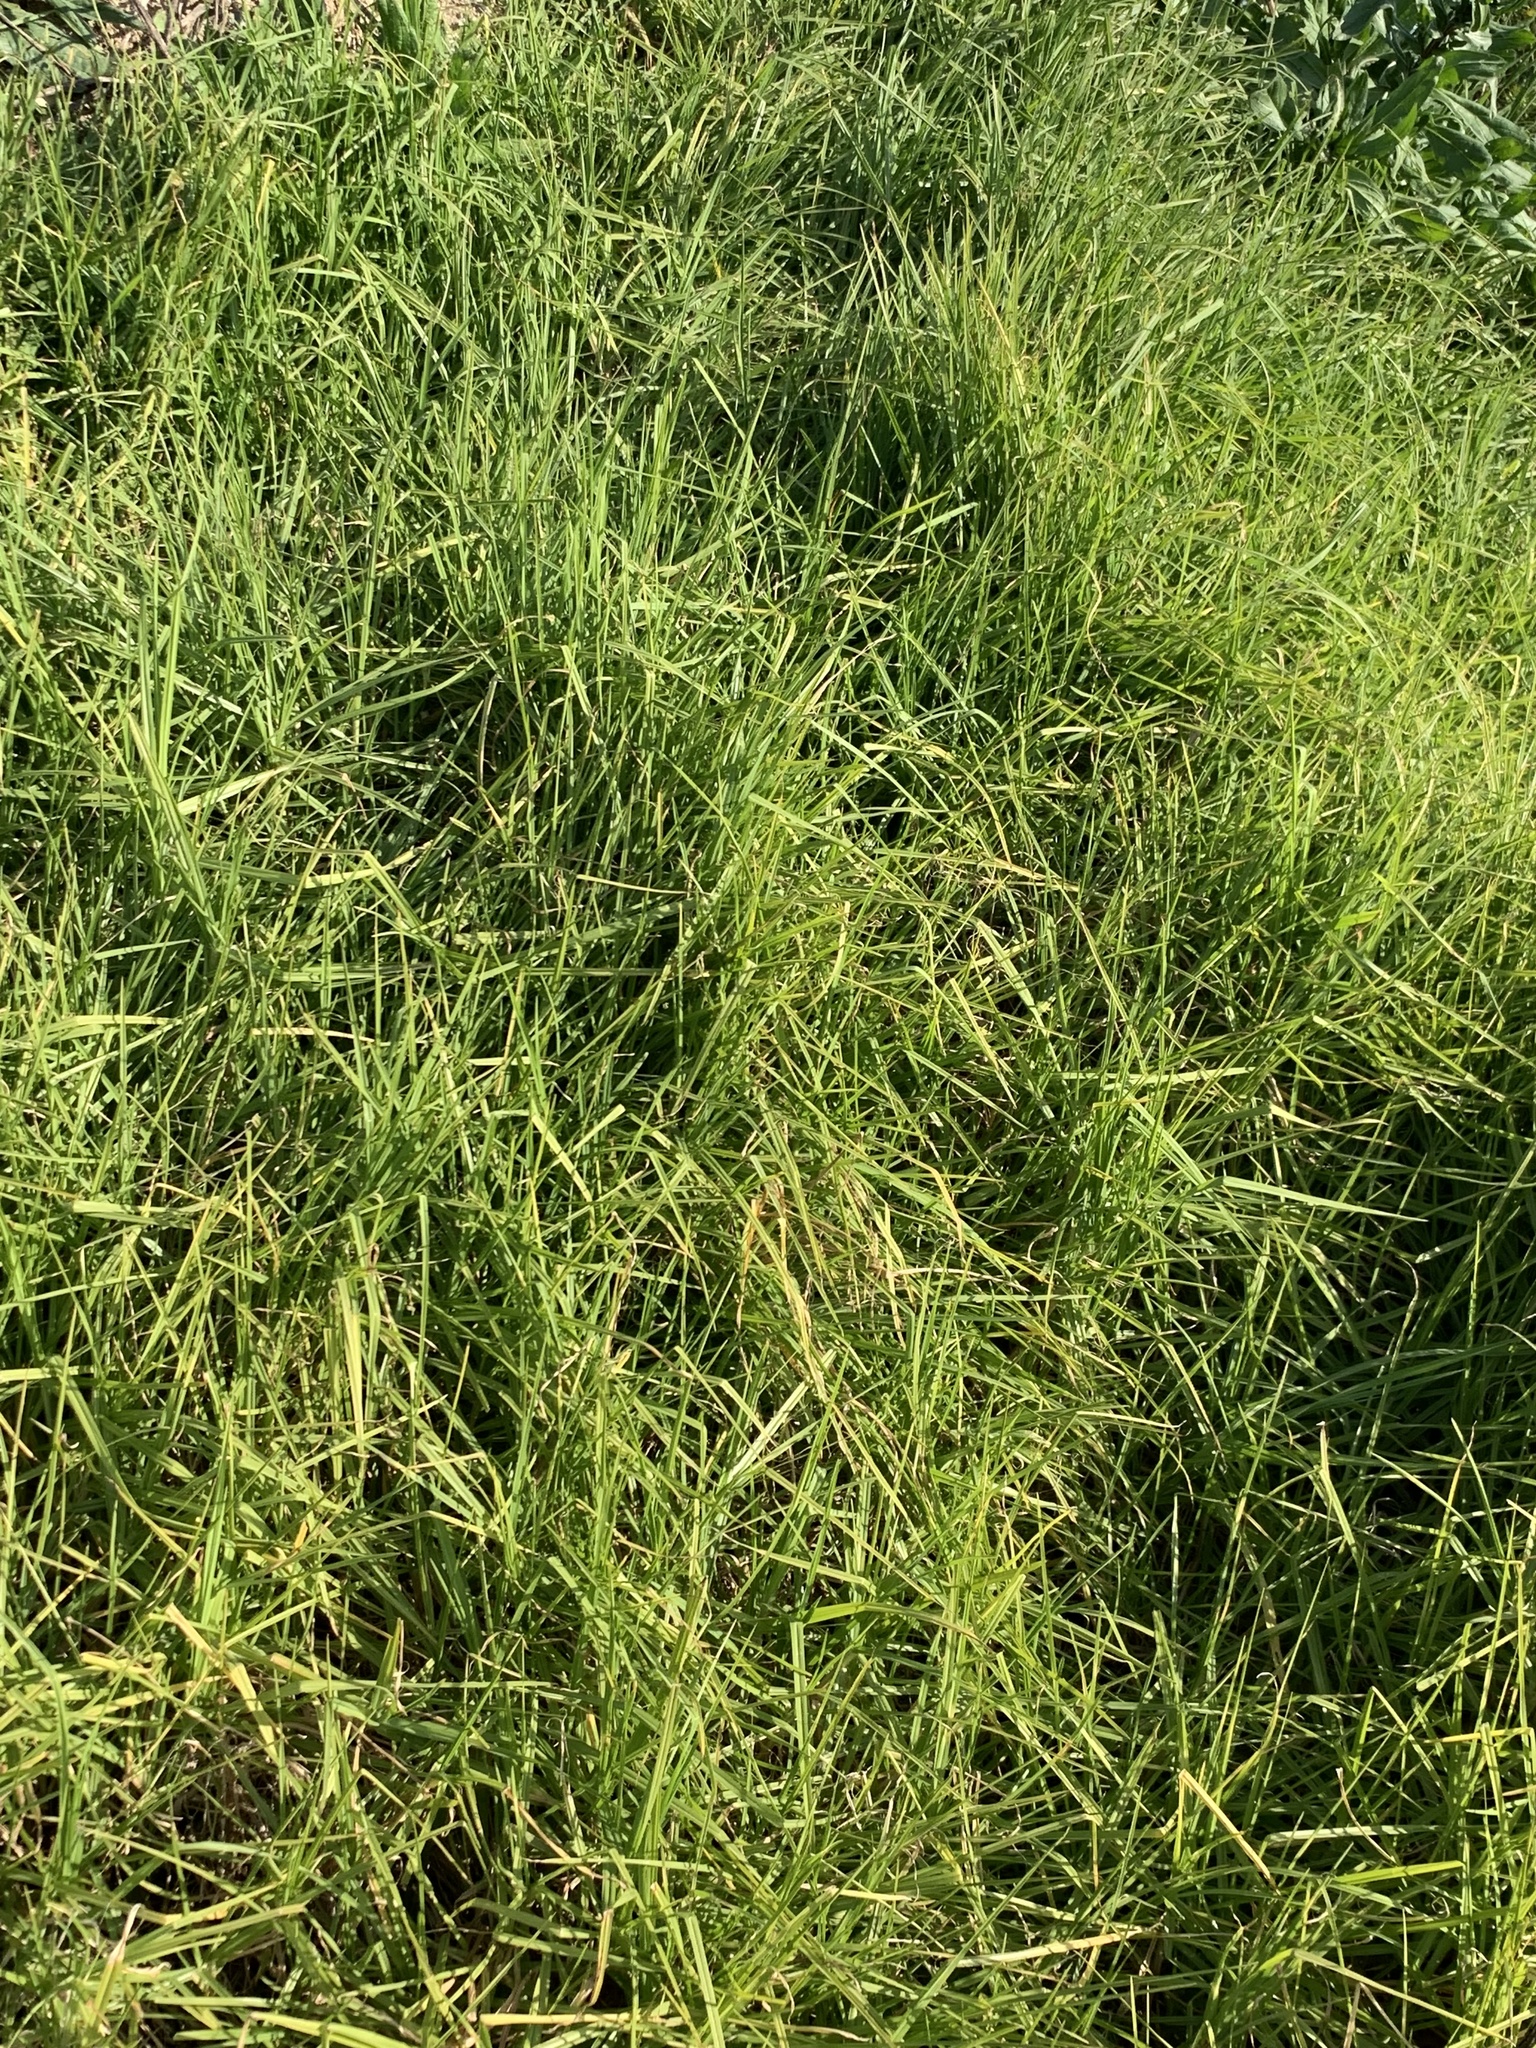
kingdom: Plantae
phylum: Tracheophyta
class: Liliopsida
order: Poales
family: Poaceae
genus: Cenchrus
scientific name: Cenchrus clandestinus
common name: Kikuyugrass
